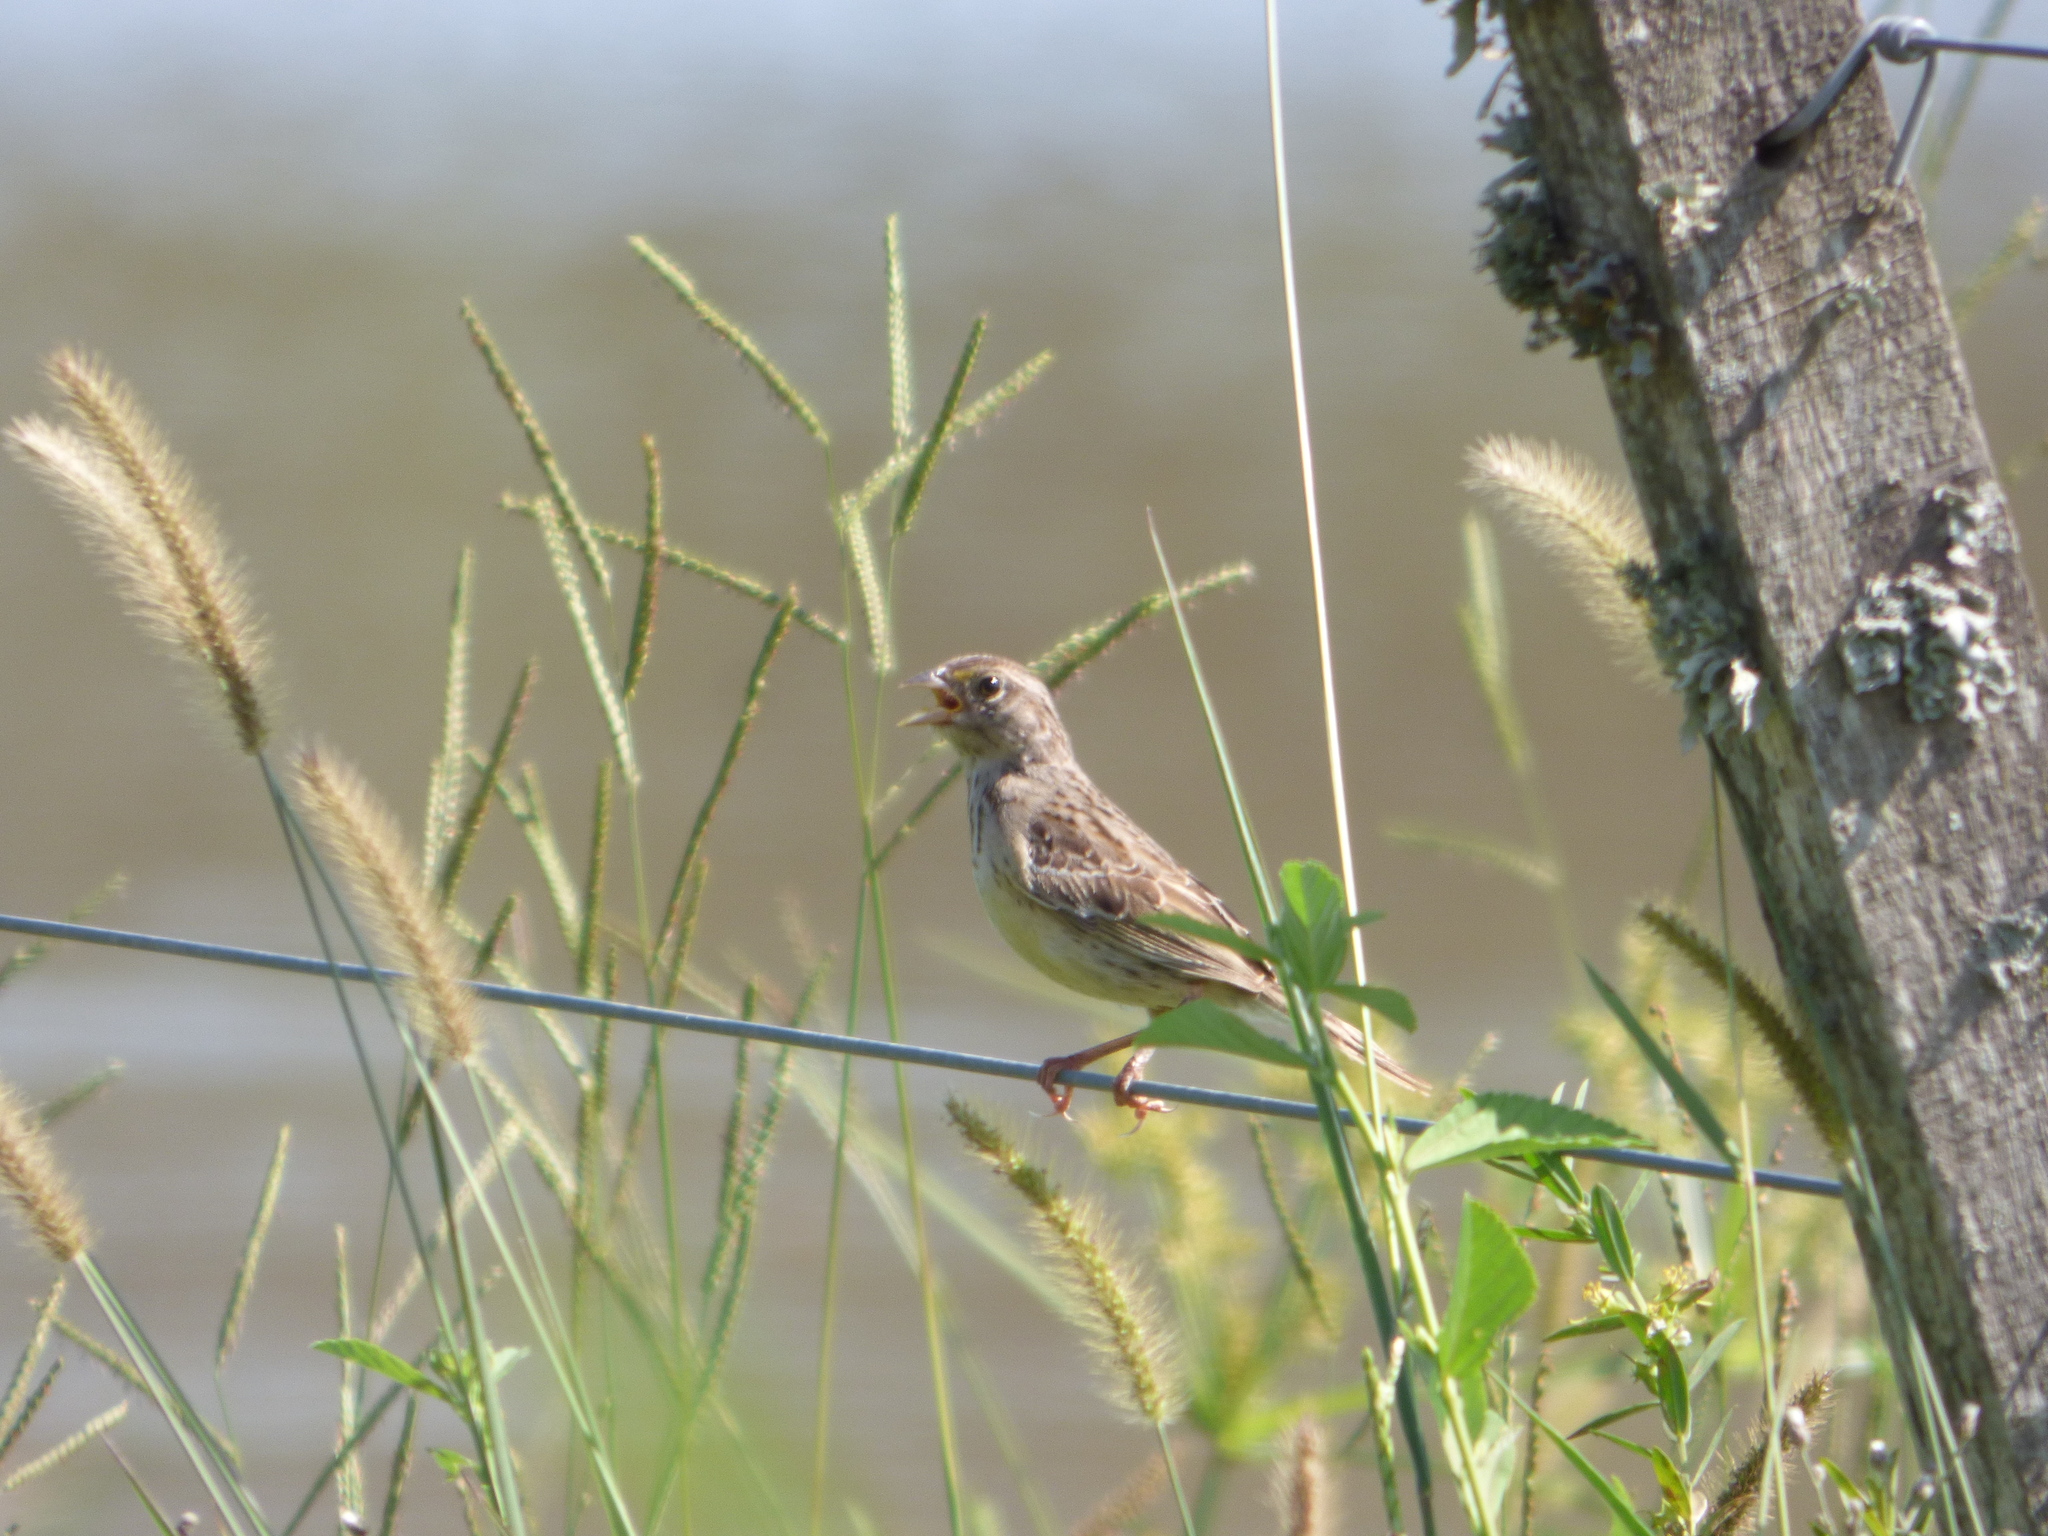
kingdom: Animalia
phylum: Chordata
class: Aves
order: Passeriformes
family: Passerellidae
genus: Ammodramus
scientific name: Ammodramus humeralis
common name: Grassland sparrow
